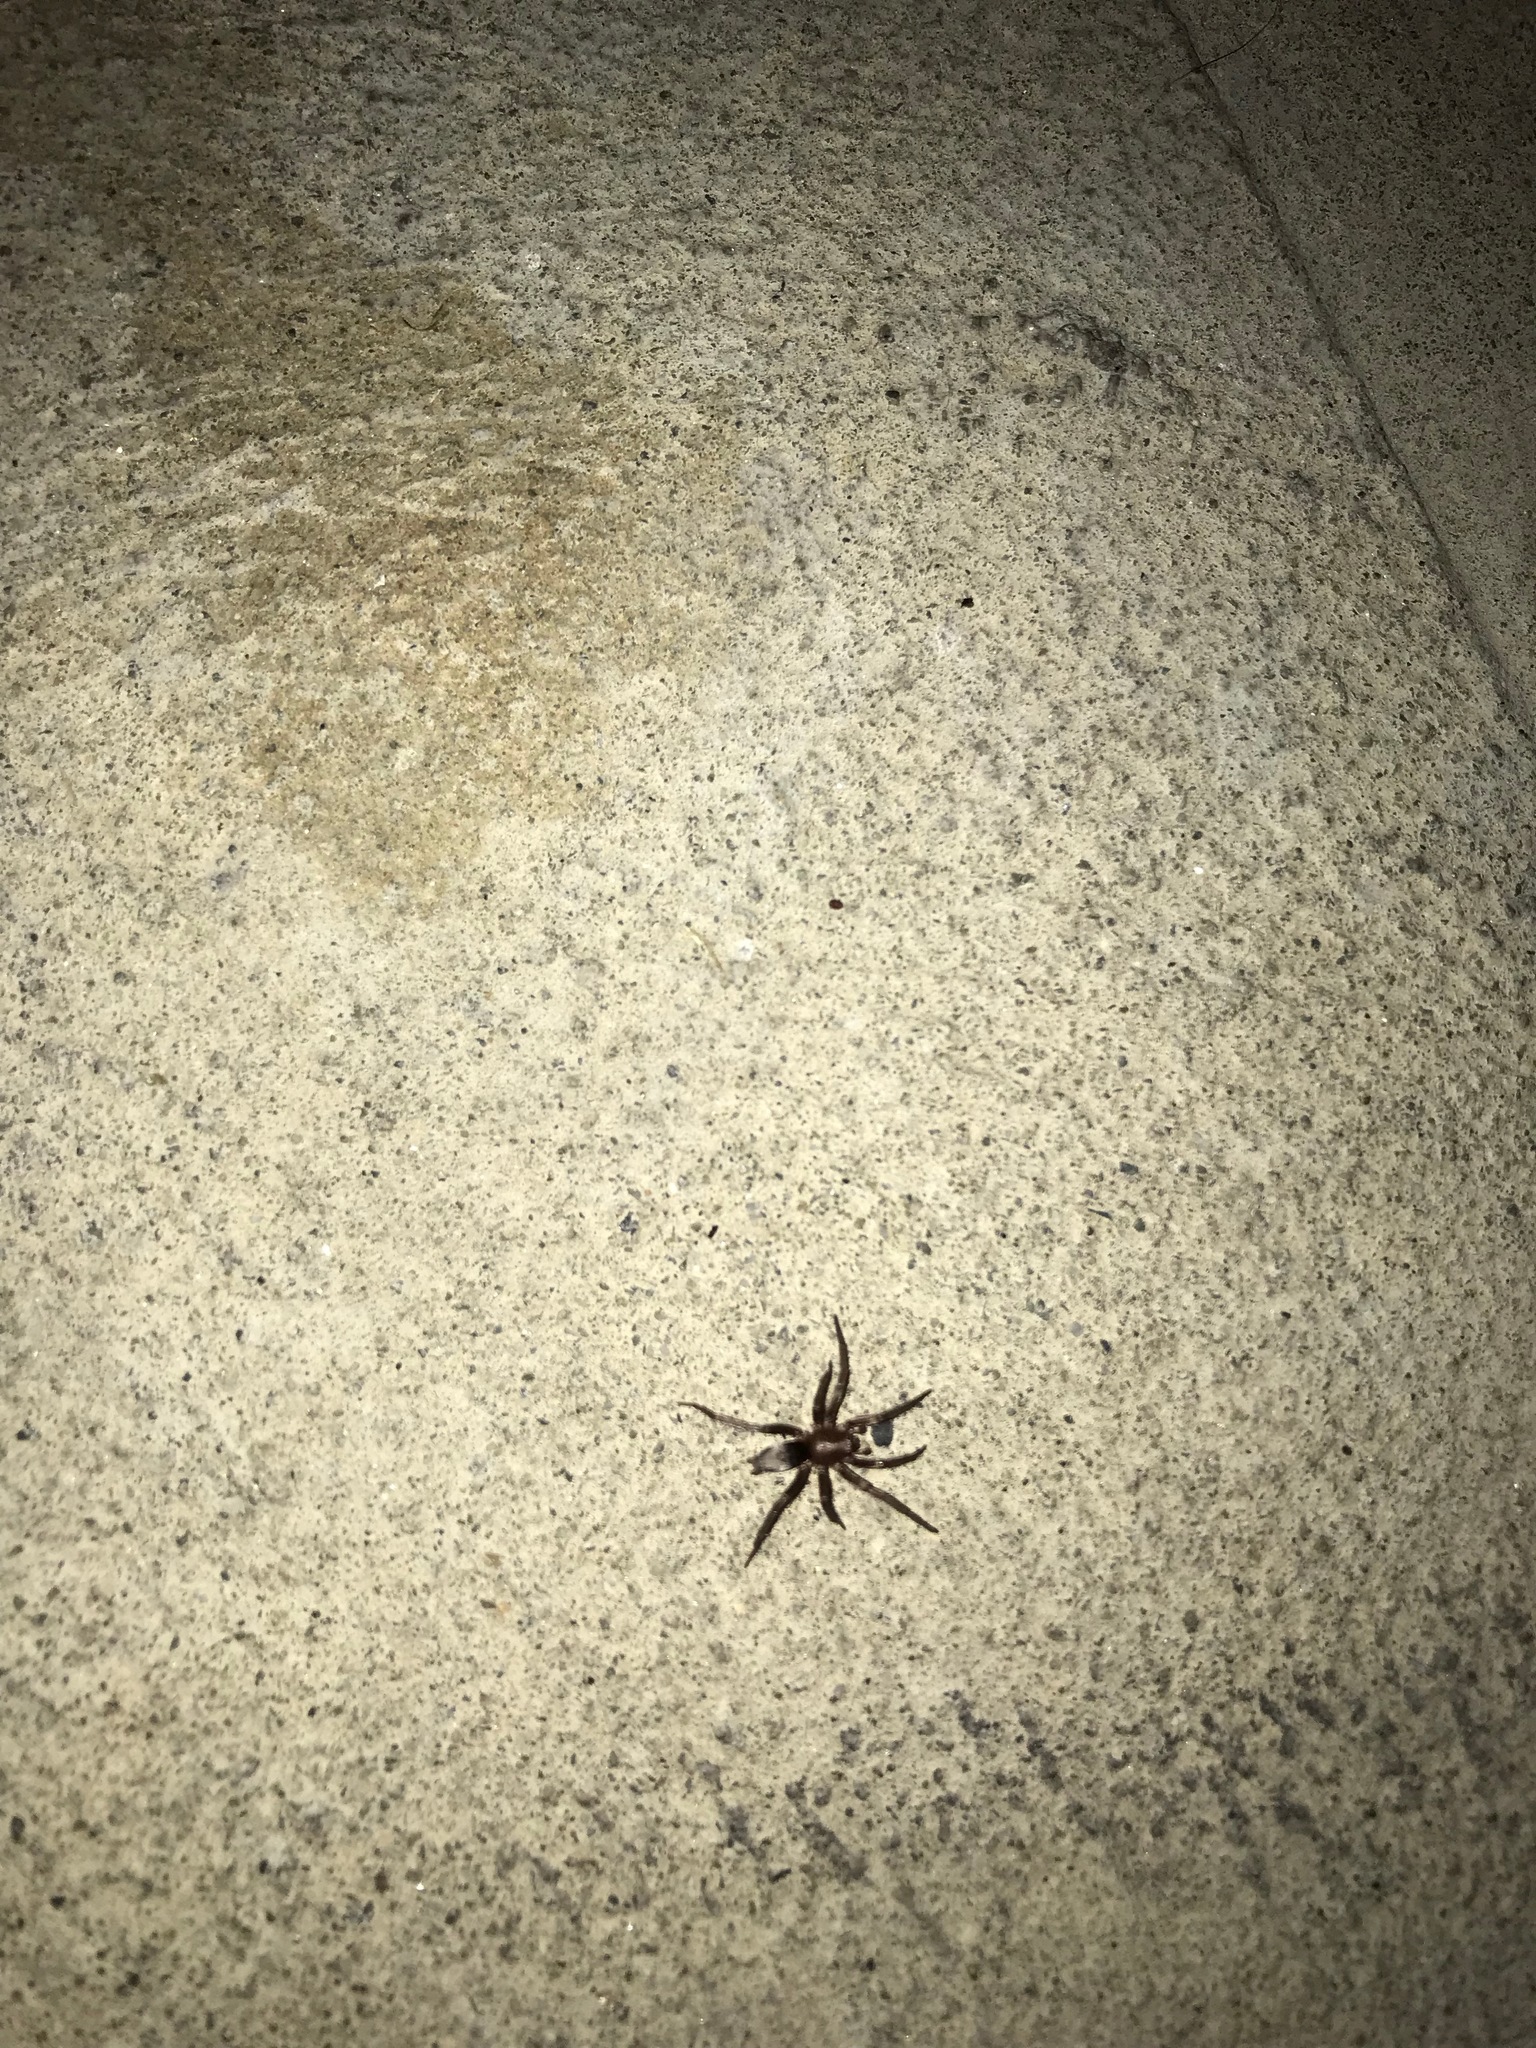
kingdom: Animalia
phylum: Arthropoda
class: Arachnida
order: Araneae
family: Gnaphosidae
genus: Scotophaeus
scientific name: Scotophaeus blackwalli
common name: Mouse spider
